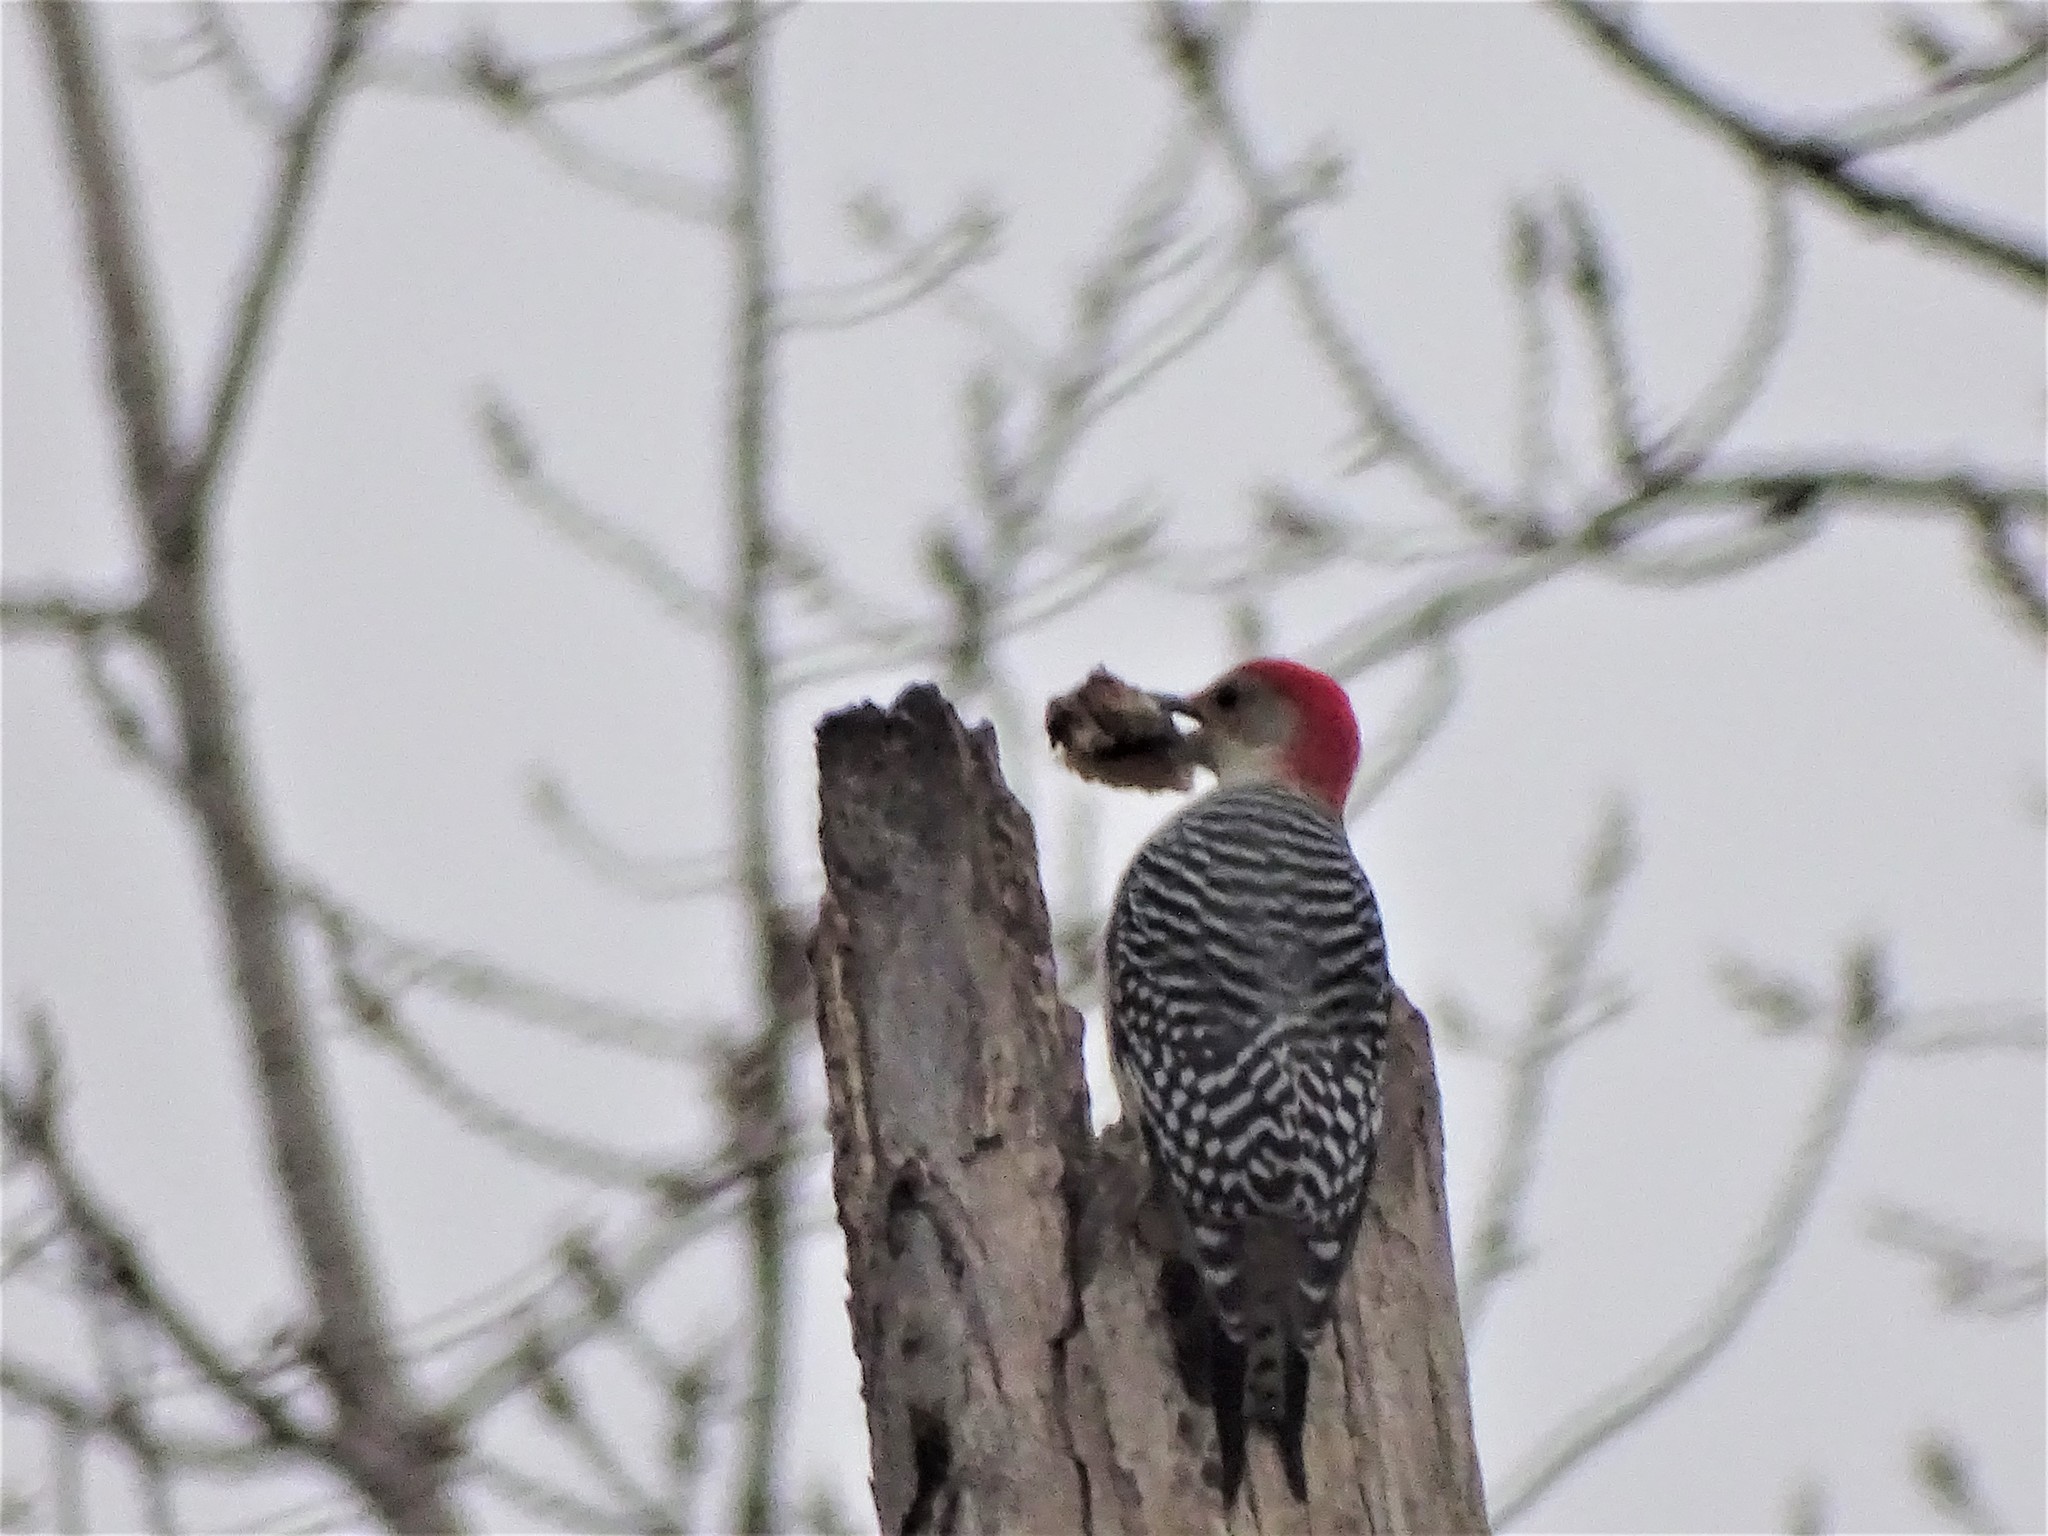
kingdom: Animalia
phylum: Chordata
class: Aves
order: Piciformes
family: Picidae
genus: Melanerpes
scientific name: Melanerpes carolinus
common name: Red-bellied woodpecker
